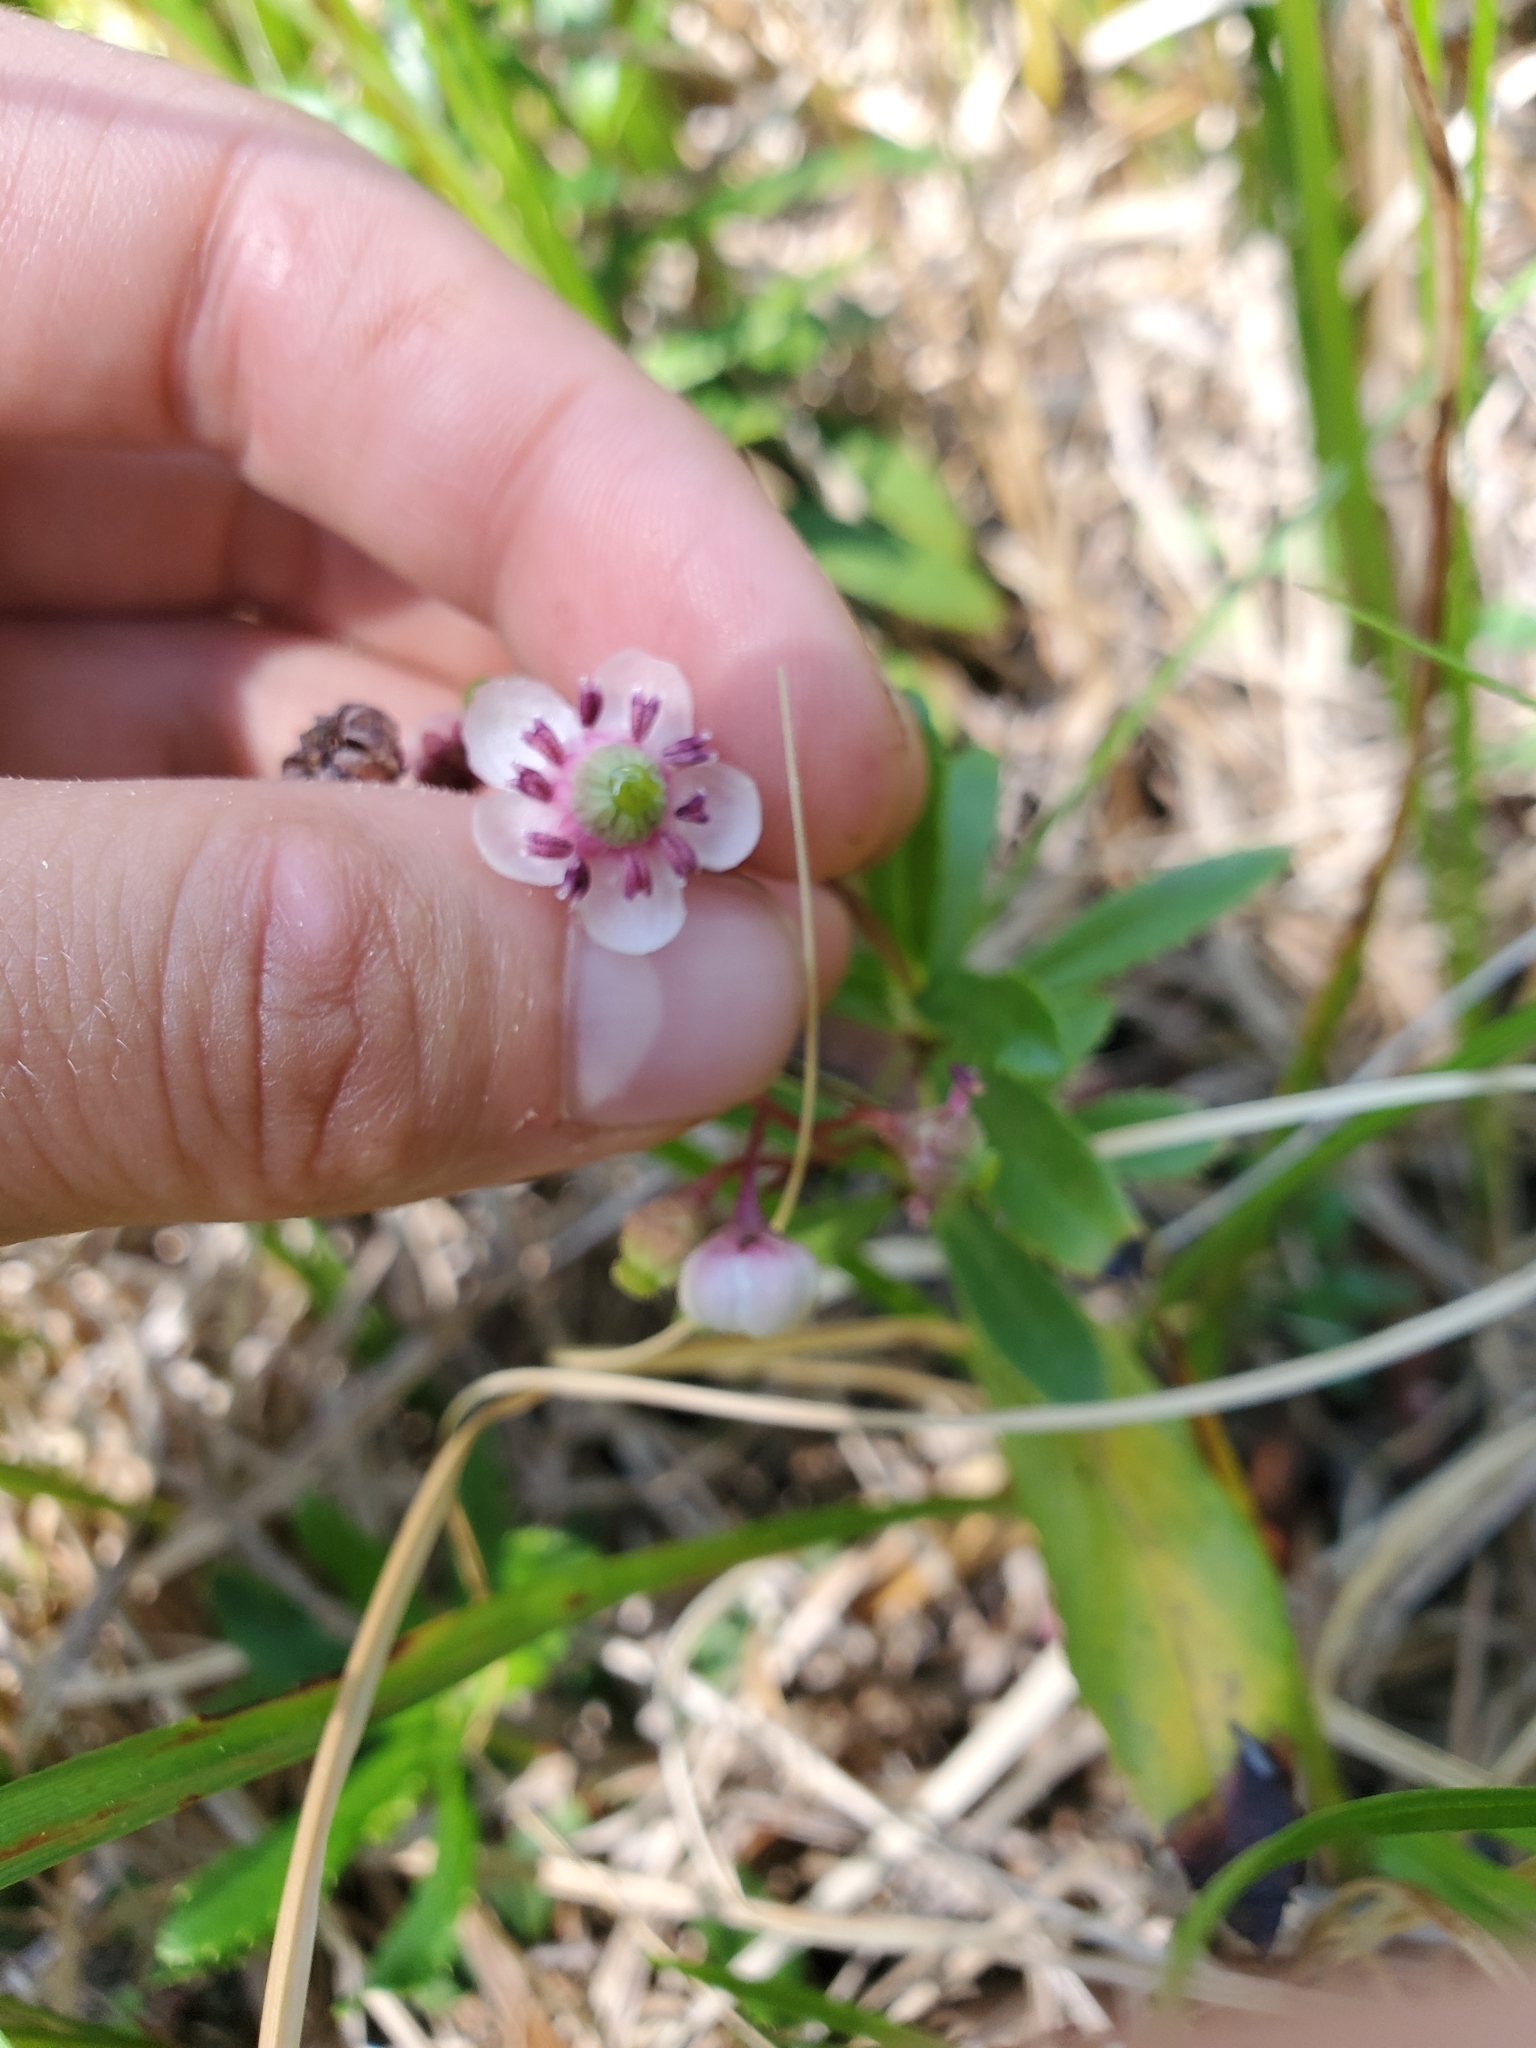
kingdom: Plantae
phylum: Tracheophyta
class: Magnoliopsida
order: Ericales
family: Ericaceae
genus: Chimaphila
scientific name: Chimaphila umbellata
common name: Pipsissewa
